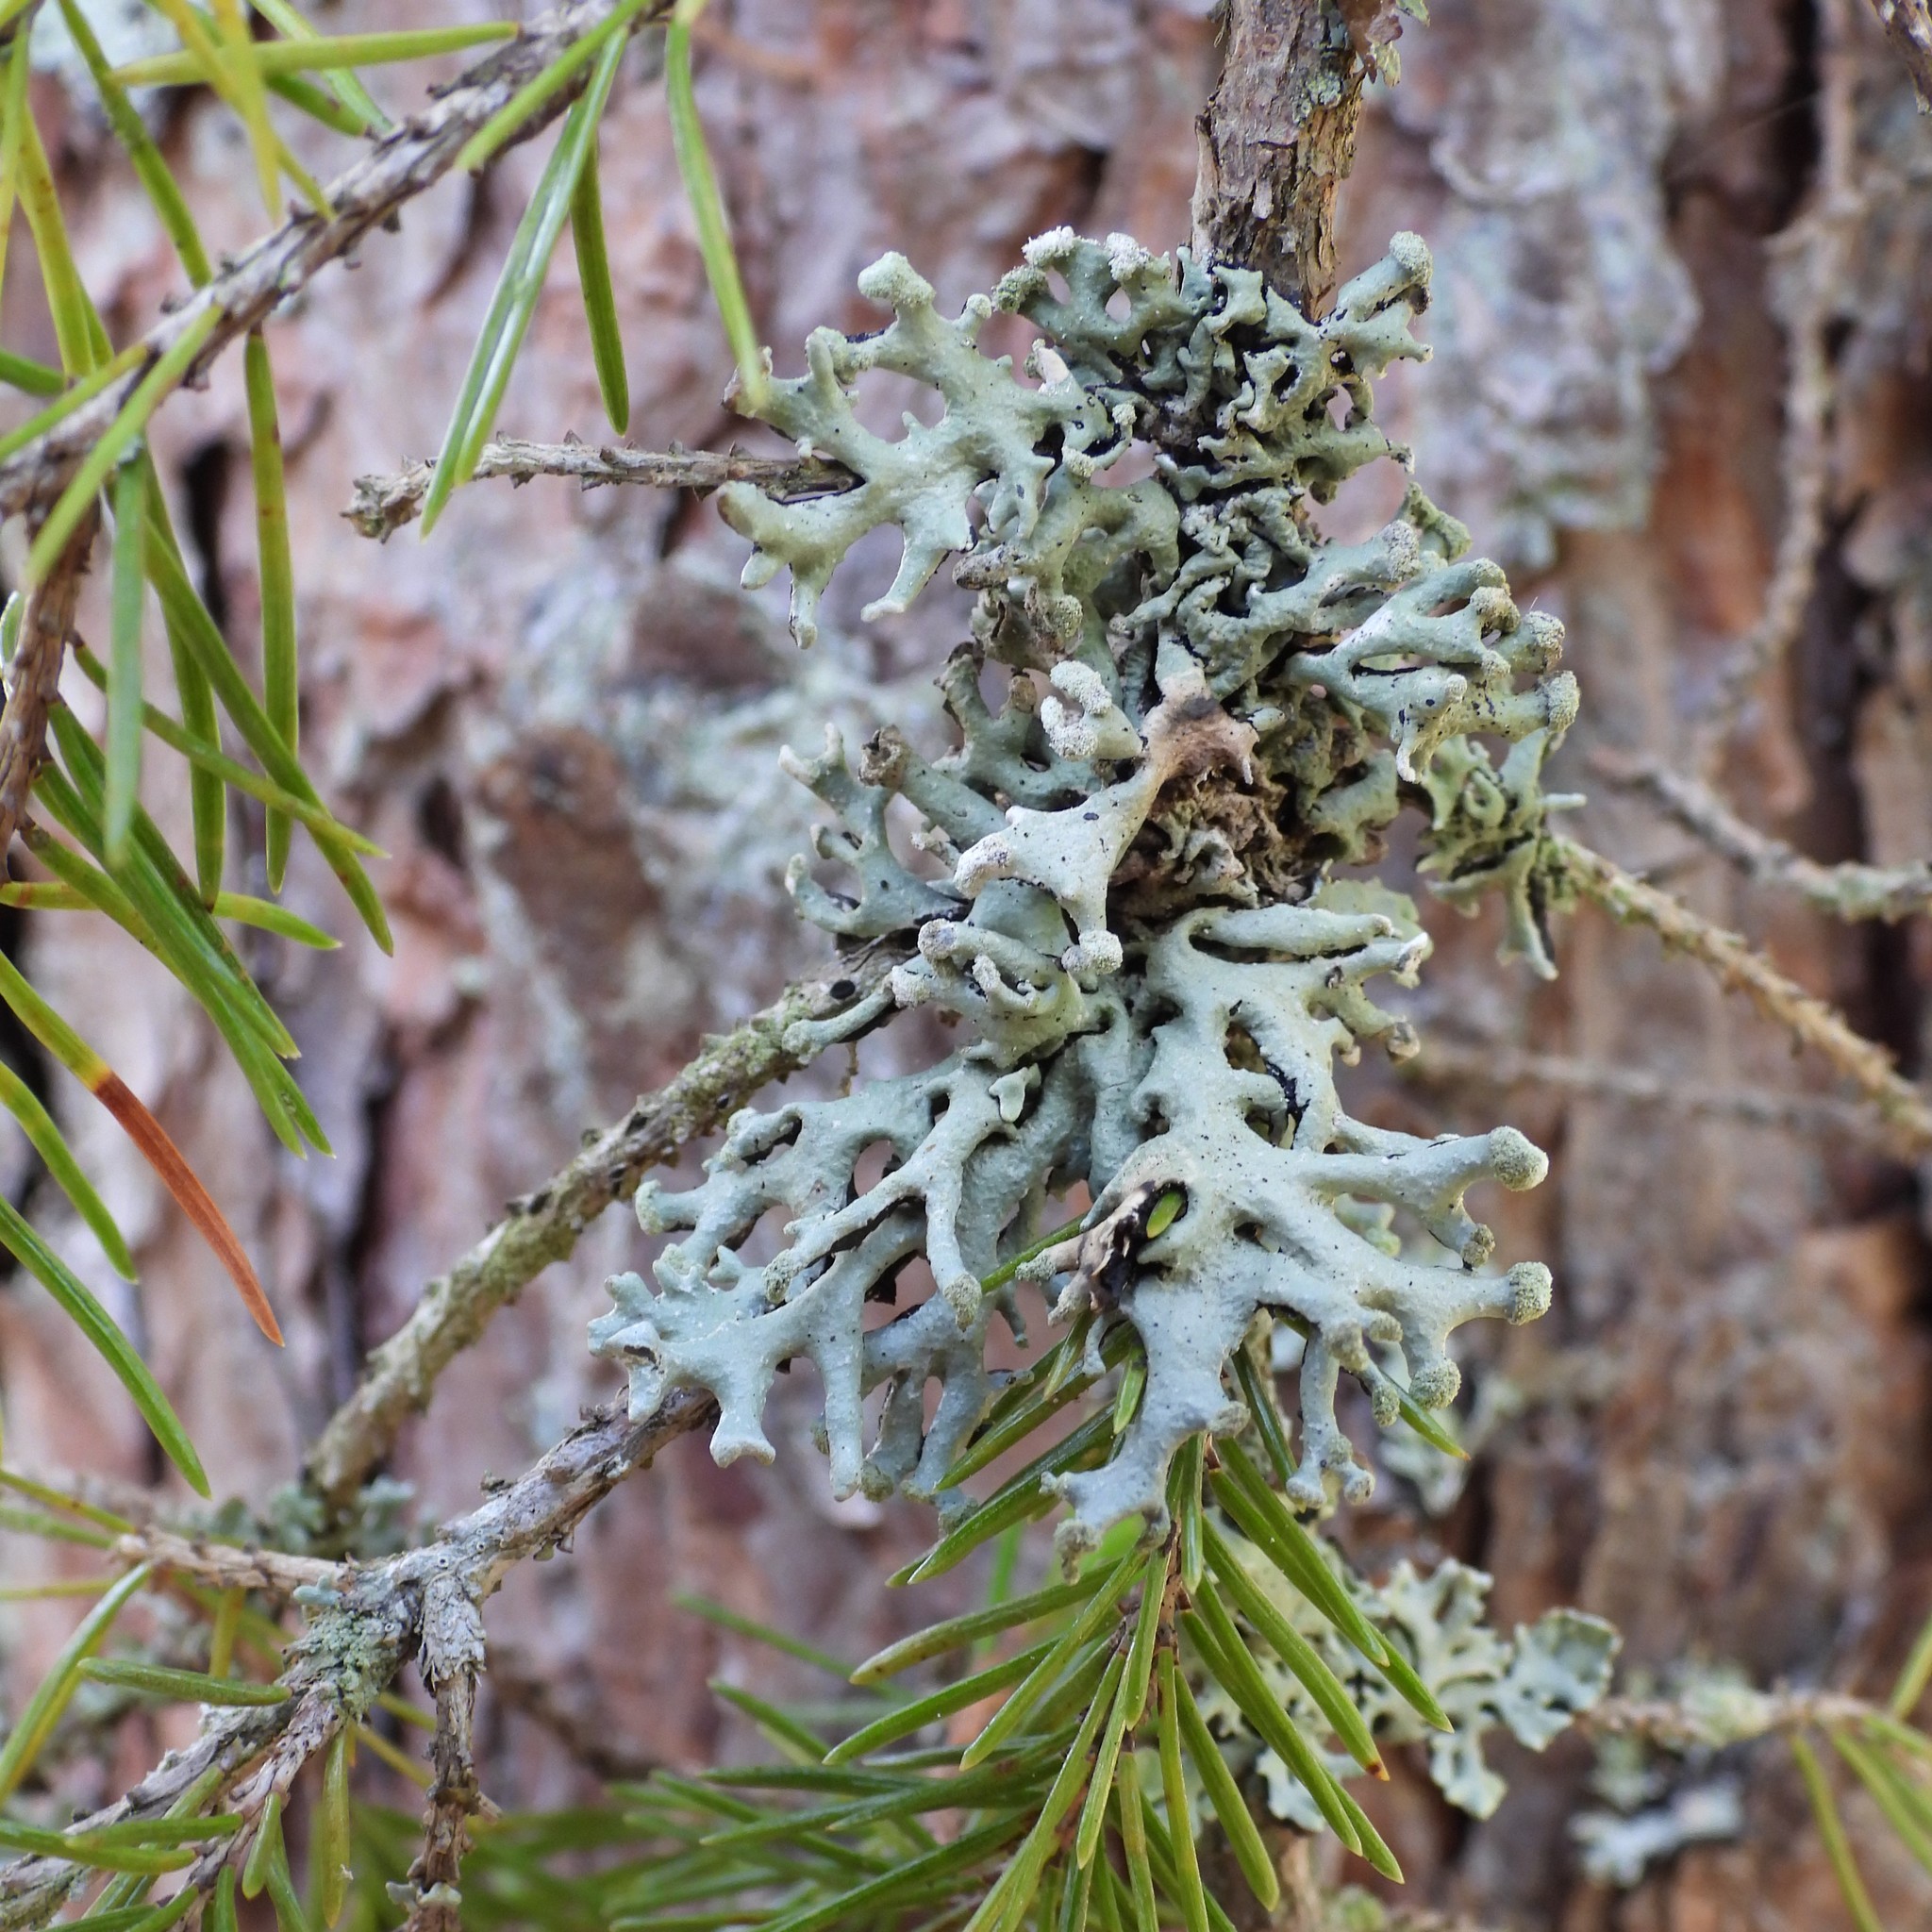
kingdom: Fungi
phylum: Ascomycota
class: Lecanoromycetes
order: Lecanorales
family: Parmeliaceae
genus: Hypogymnia
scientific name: Hypogymnia tubulosa
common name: Powder-headed tube lichen
